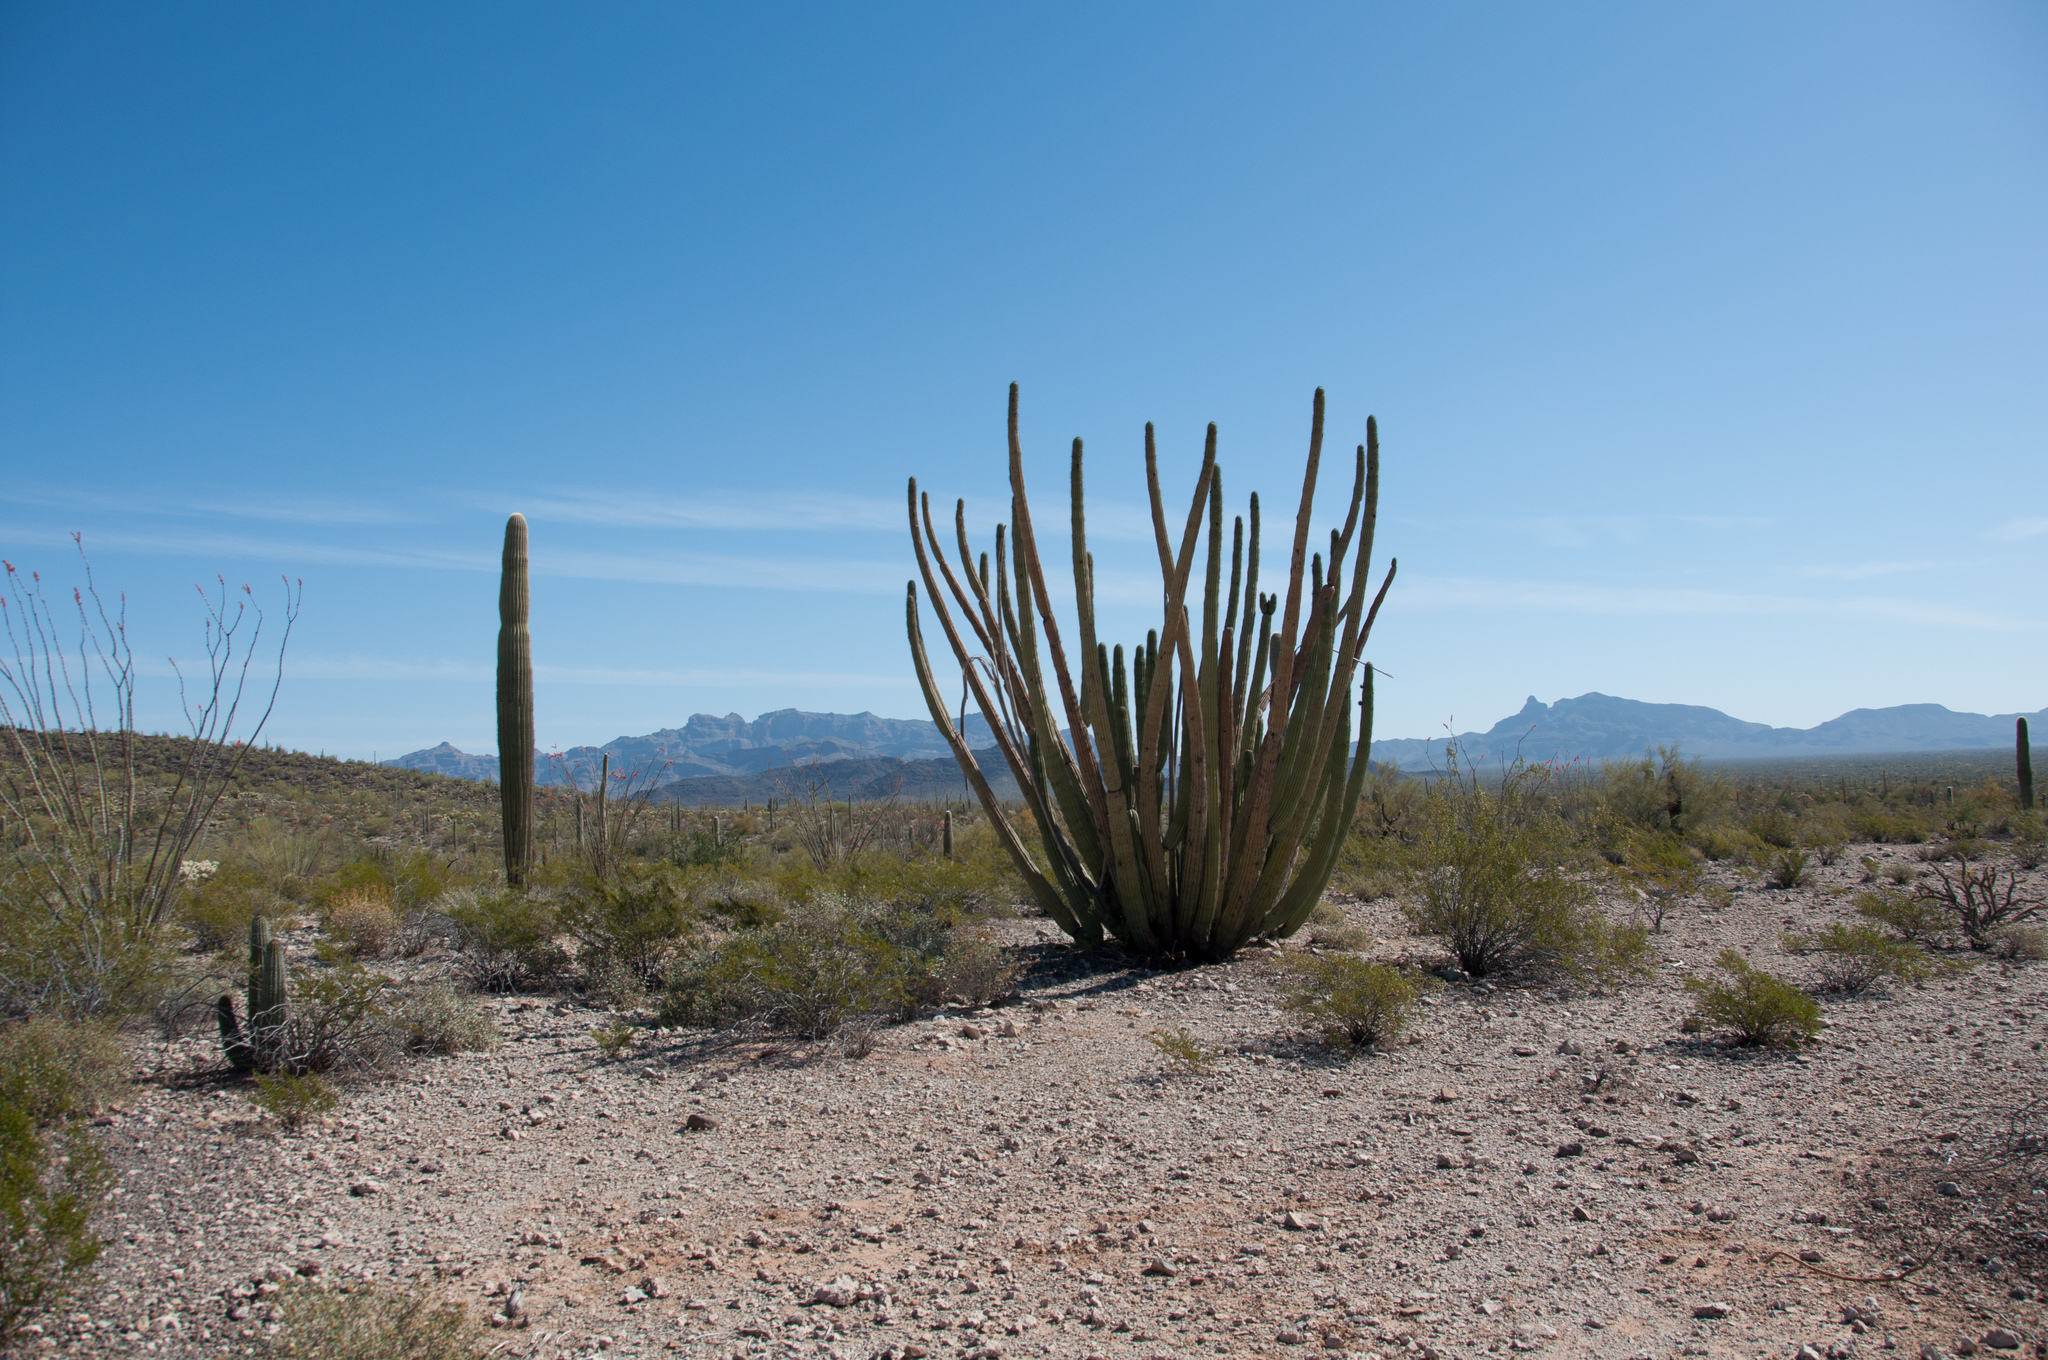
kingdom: Plantae
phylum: Tracheophyta
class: Magnoliopsida
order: Caryophyllales
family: Cactaceae
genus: Stenocereus
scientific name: Stenocereus thurberi
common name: Organ pipe cactus
